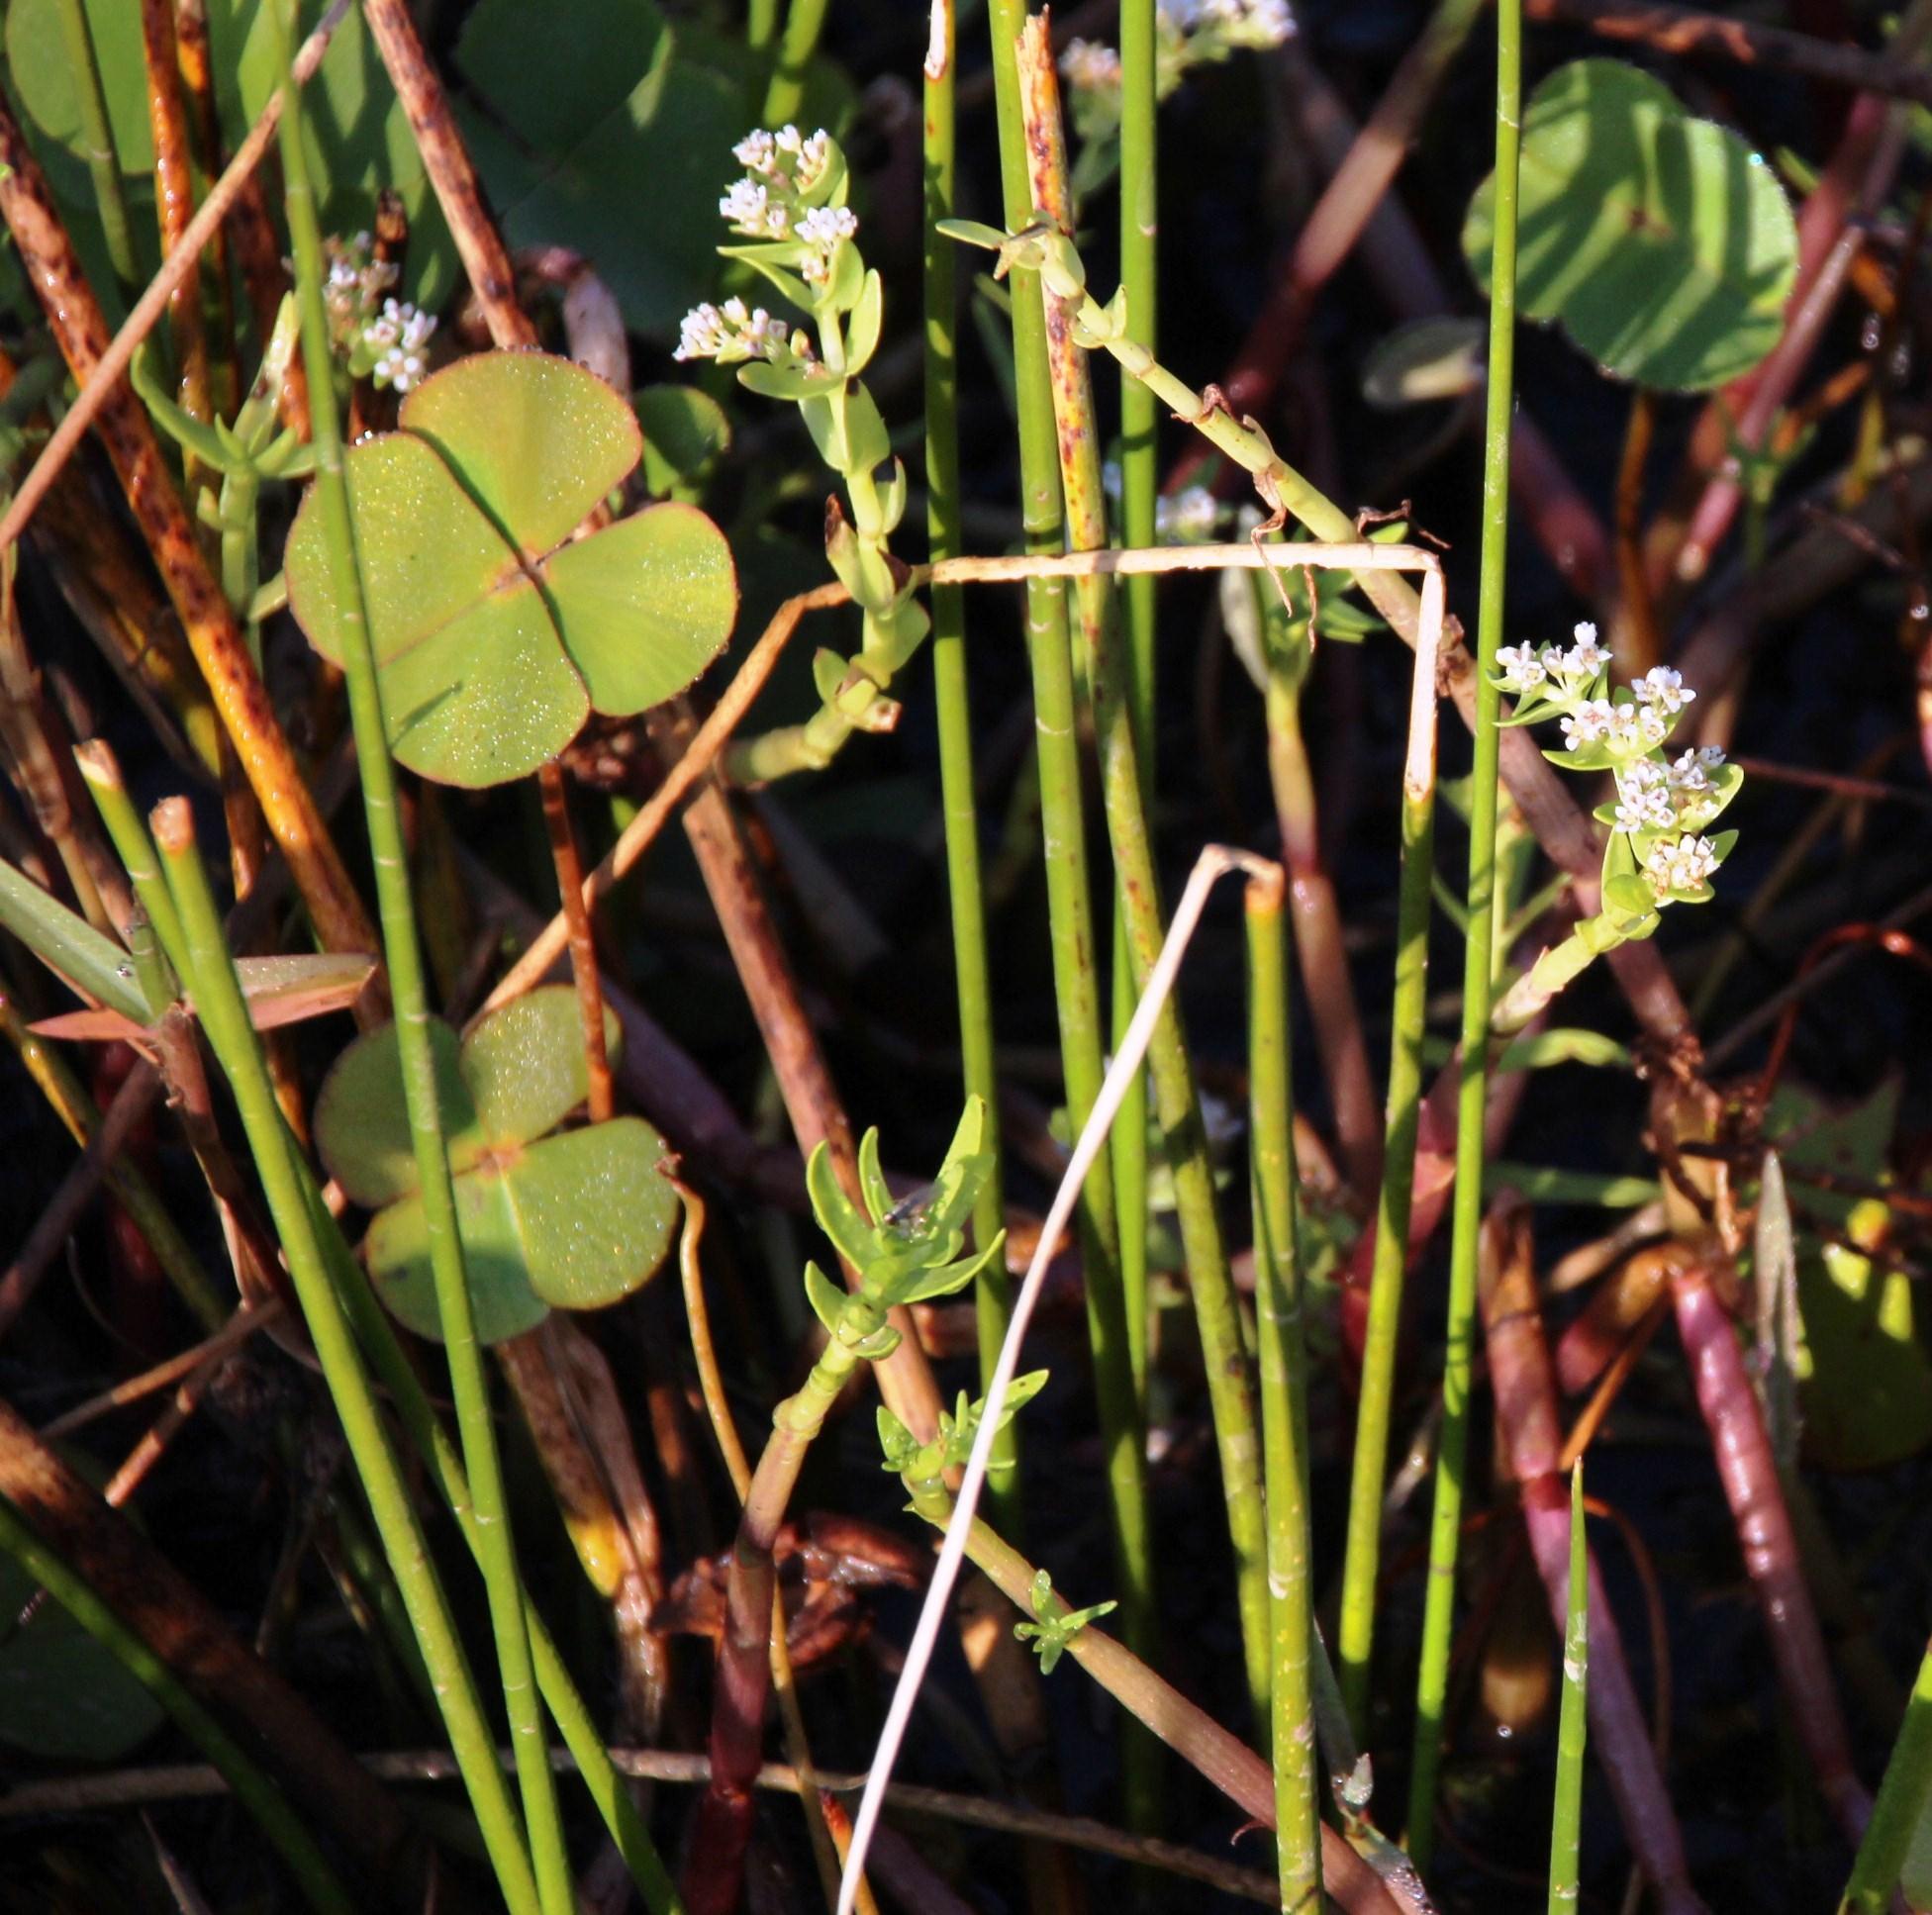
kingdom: Plantae
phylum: Tracheophyta
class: Polypodiopsida
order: Salviniales
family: Marsileaceae
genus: Marsilea
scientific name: Marsilea macrocarpa
